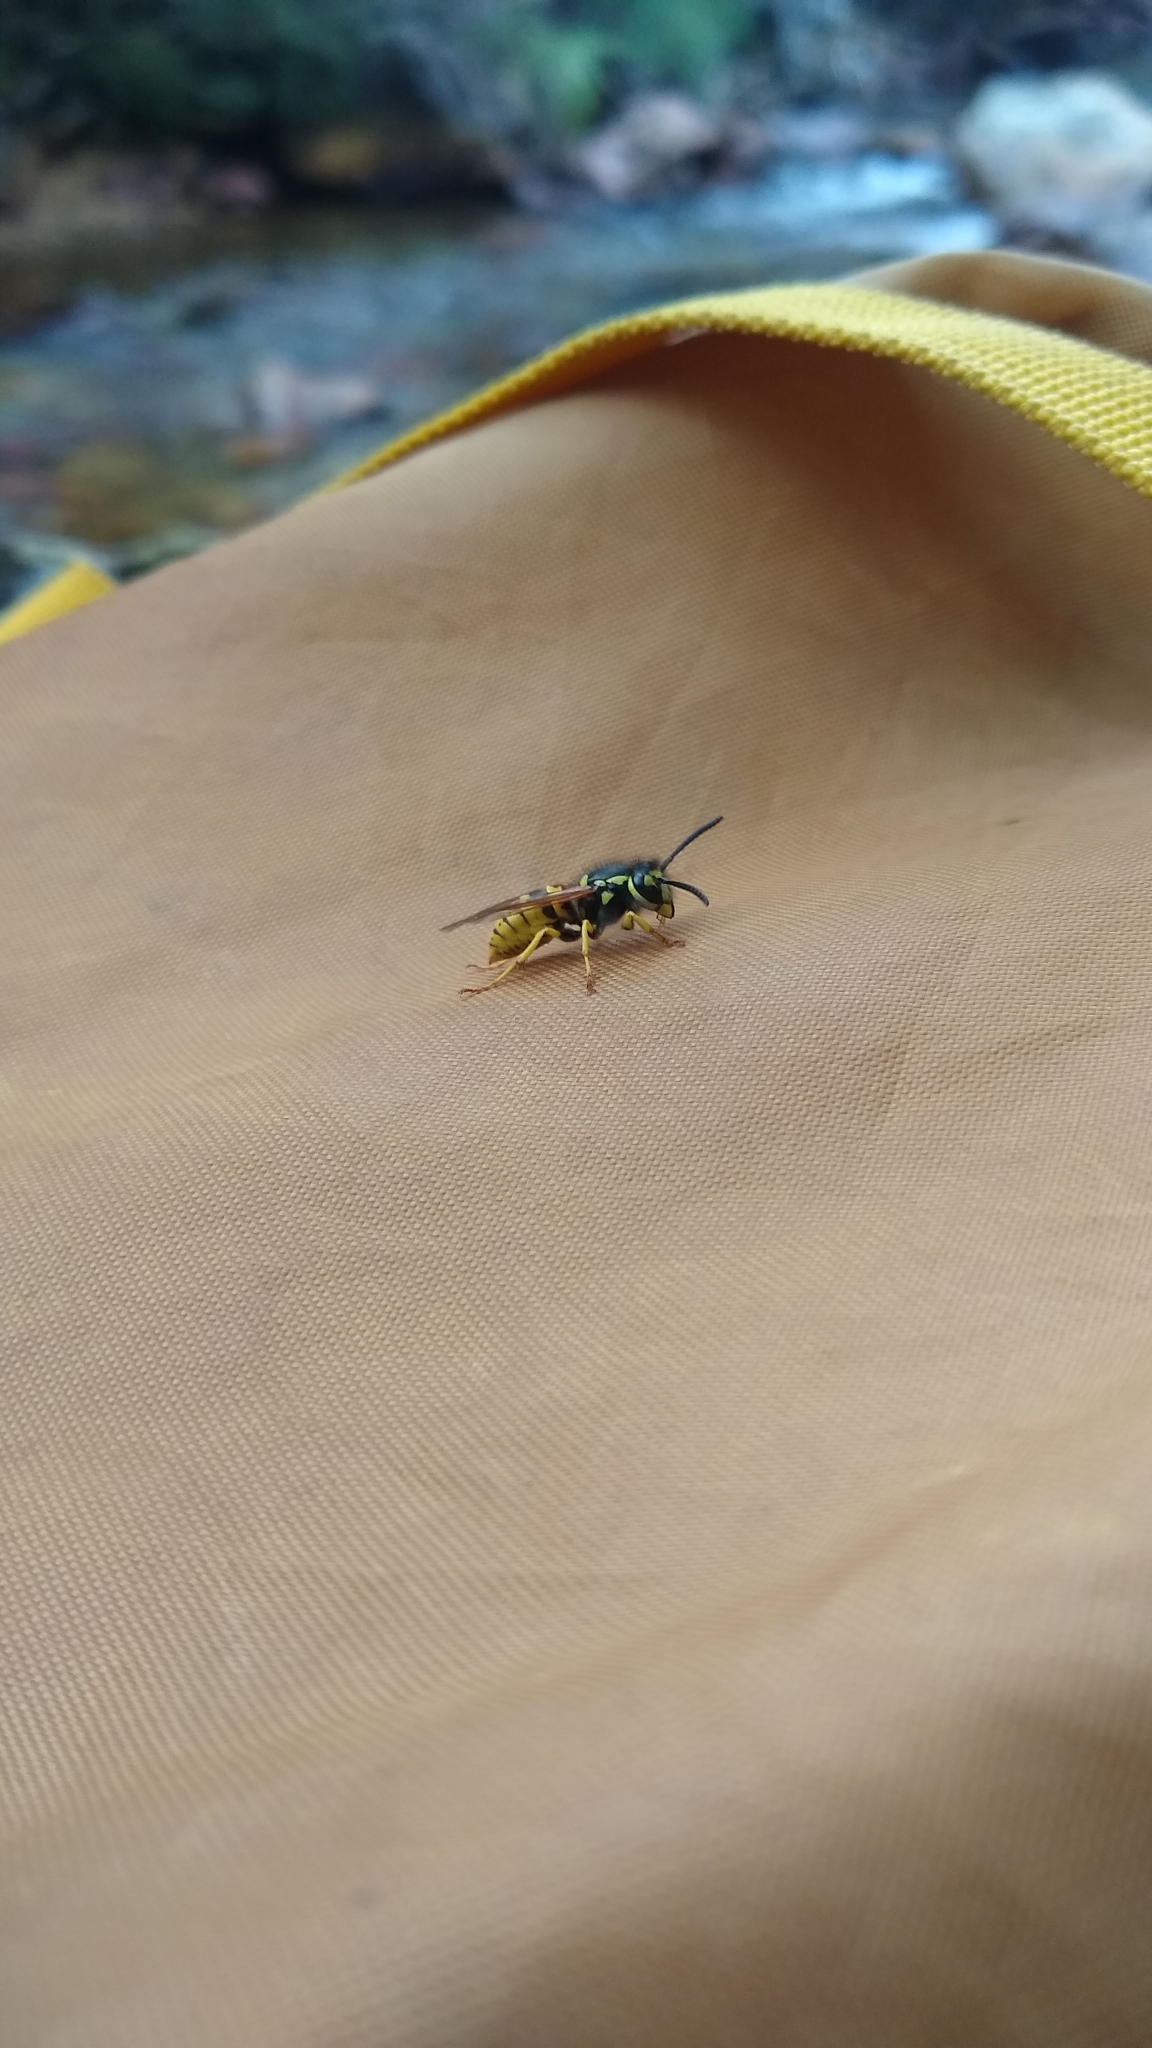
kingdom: Animalia
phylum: Arthropoda
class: Insecta
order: Hymenoptera
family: Vespidae
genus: Vespula
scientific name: Vespula germanica
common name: German wasp
